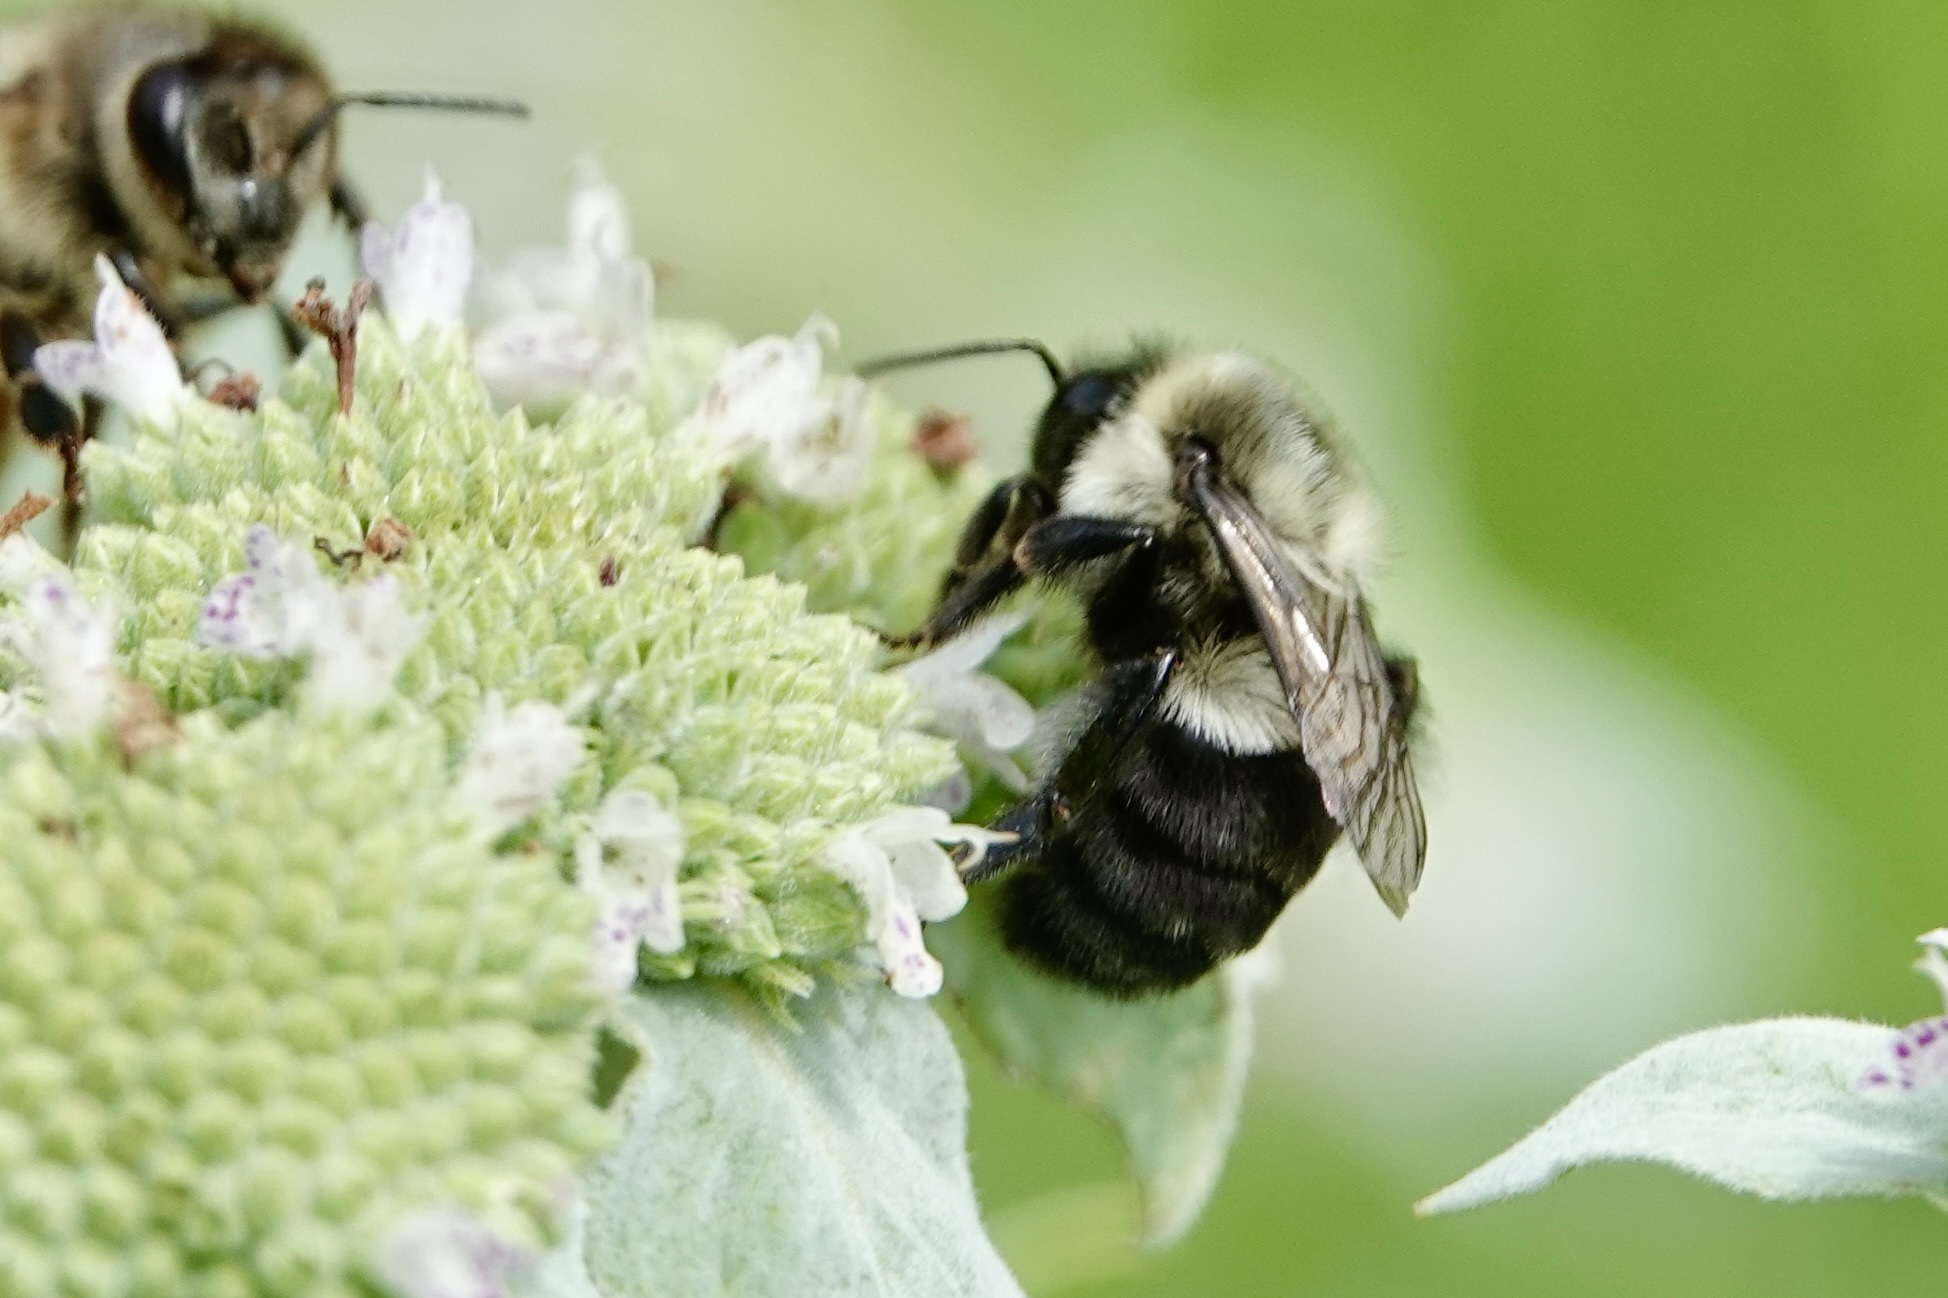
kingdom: Animalia
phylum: Arthropoda
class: Insecta
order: Hymenoptera
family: Apidae
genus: Bombus
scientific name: Bombus impatiens
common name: Common eastern bumble bee
